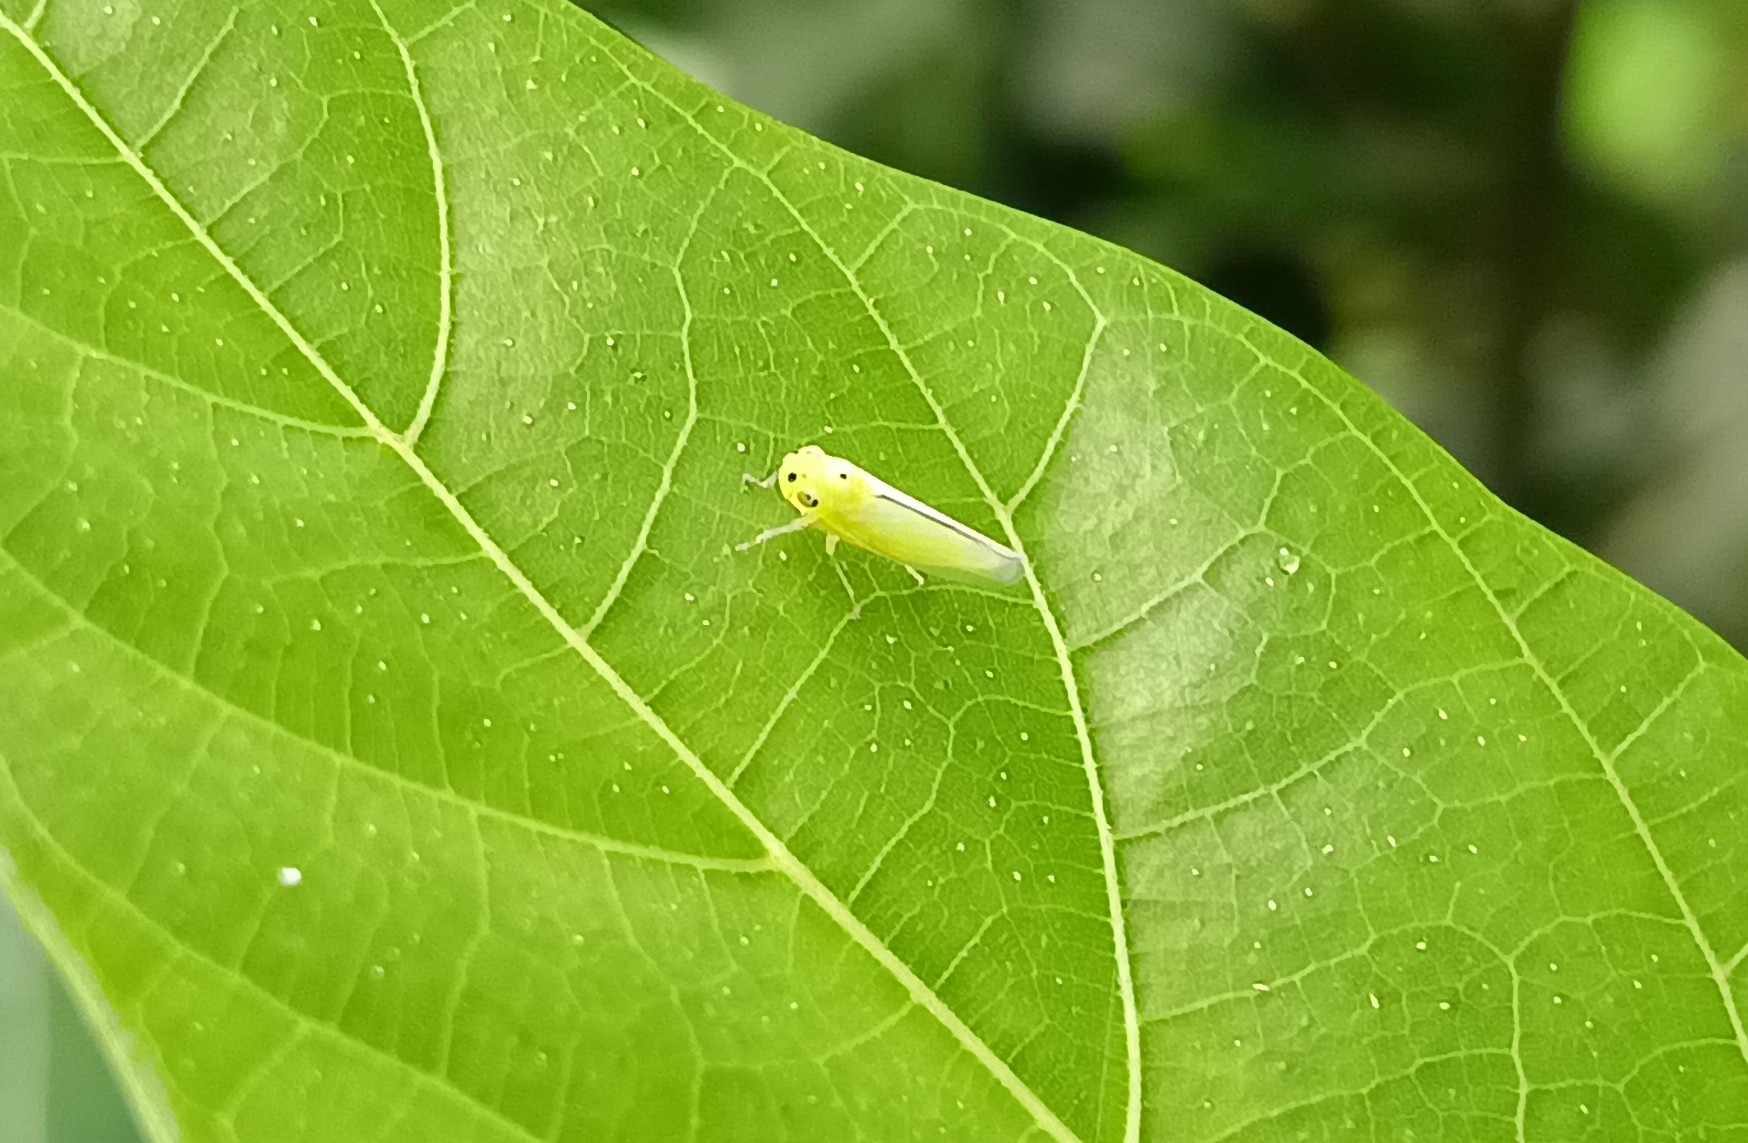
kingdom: Animalia
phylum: Arthropoda
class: Insecta
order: Hemiptera
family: Cicadellidae
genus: Kolla
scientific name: Kolla ceylonica
